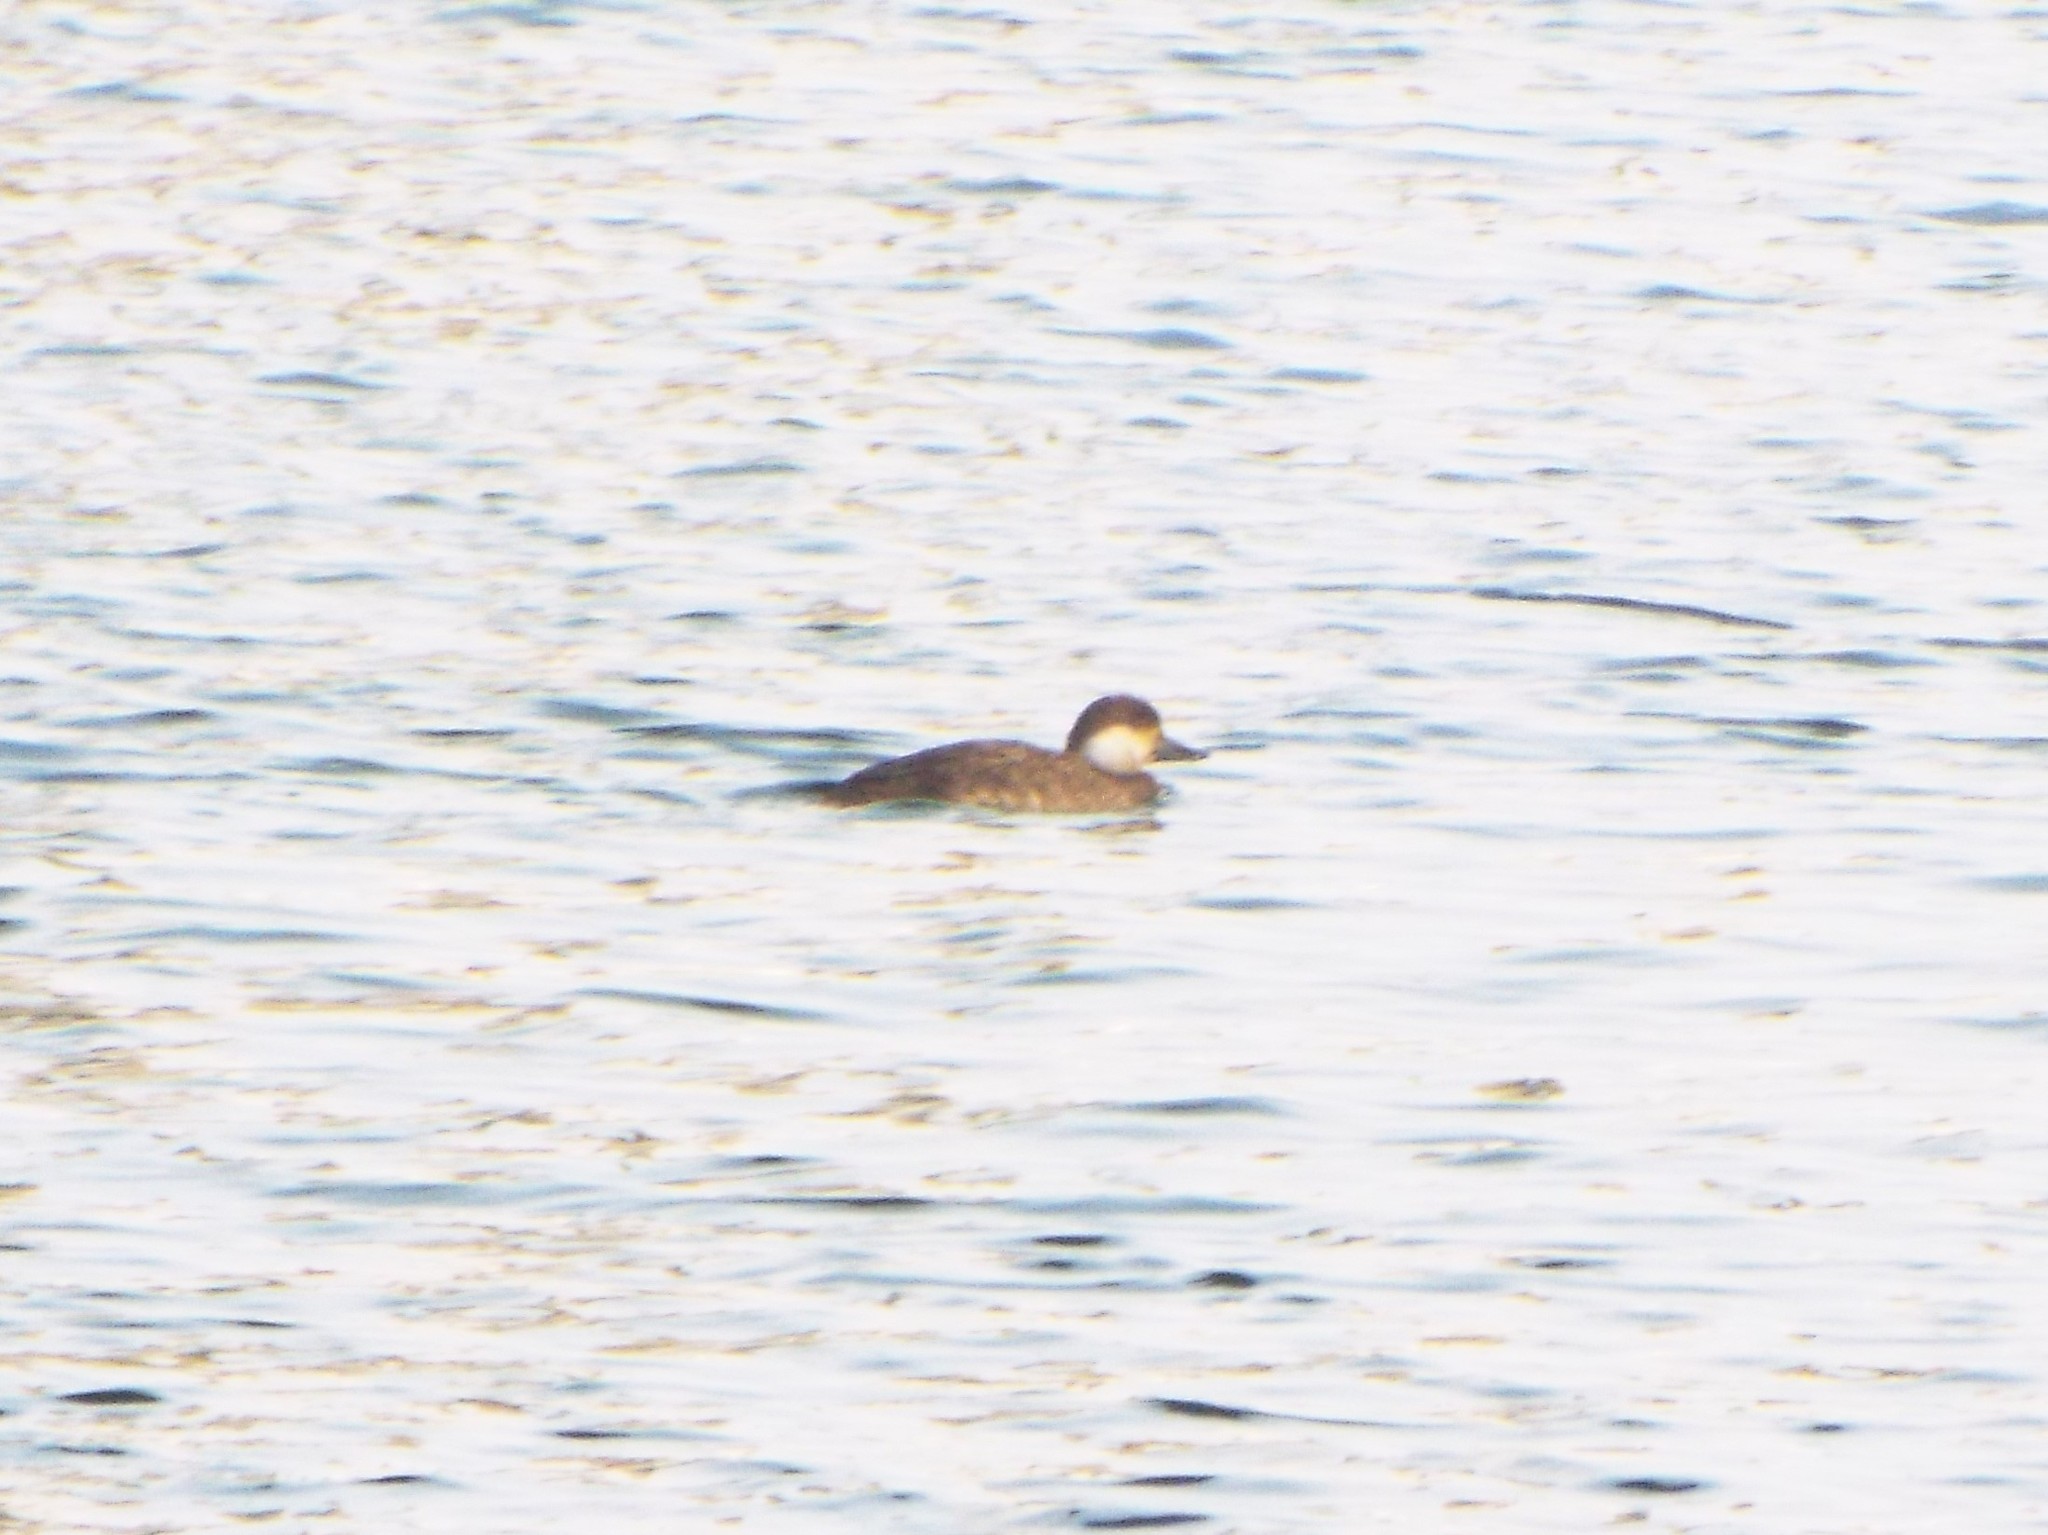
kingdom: Animalia
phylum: Chordata
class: Aves
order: Anseriformes
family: Anatidae
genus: Melanitta
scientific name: Melanitta americana
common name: Black scoter
